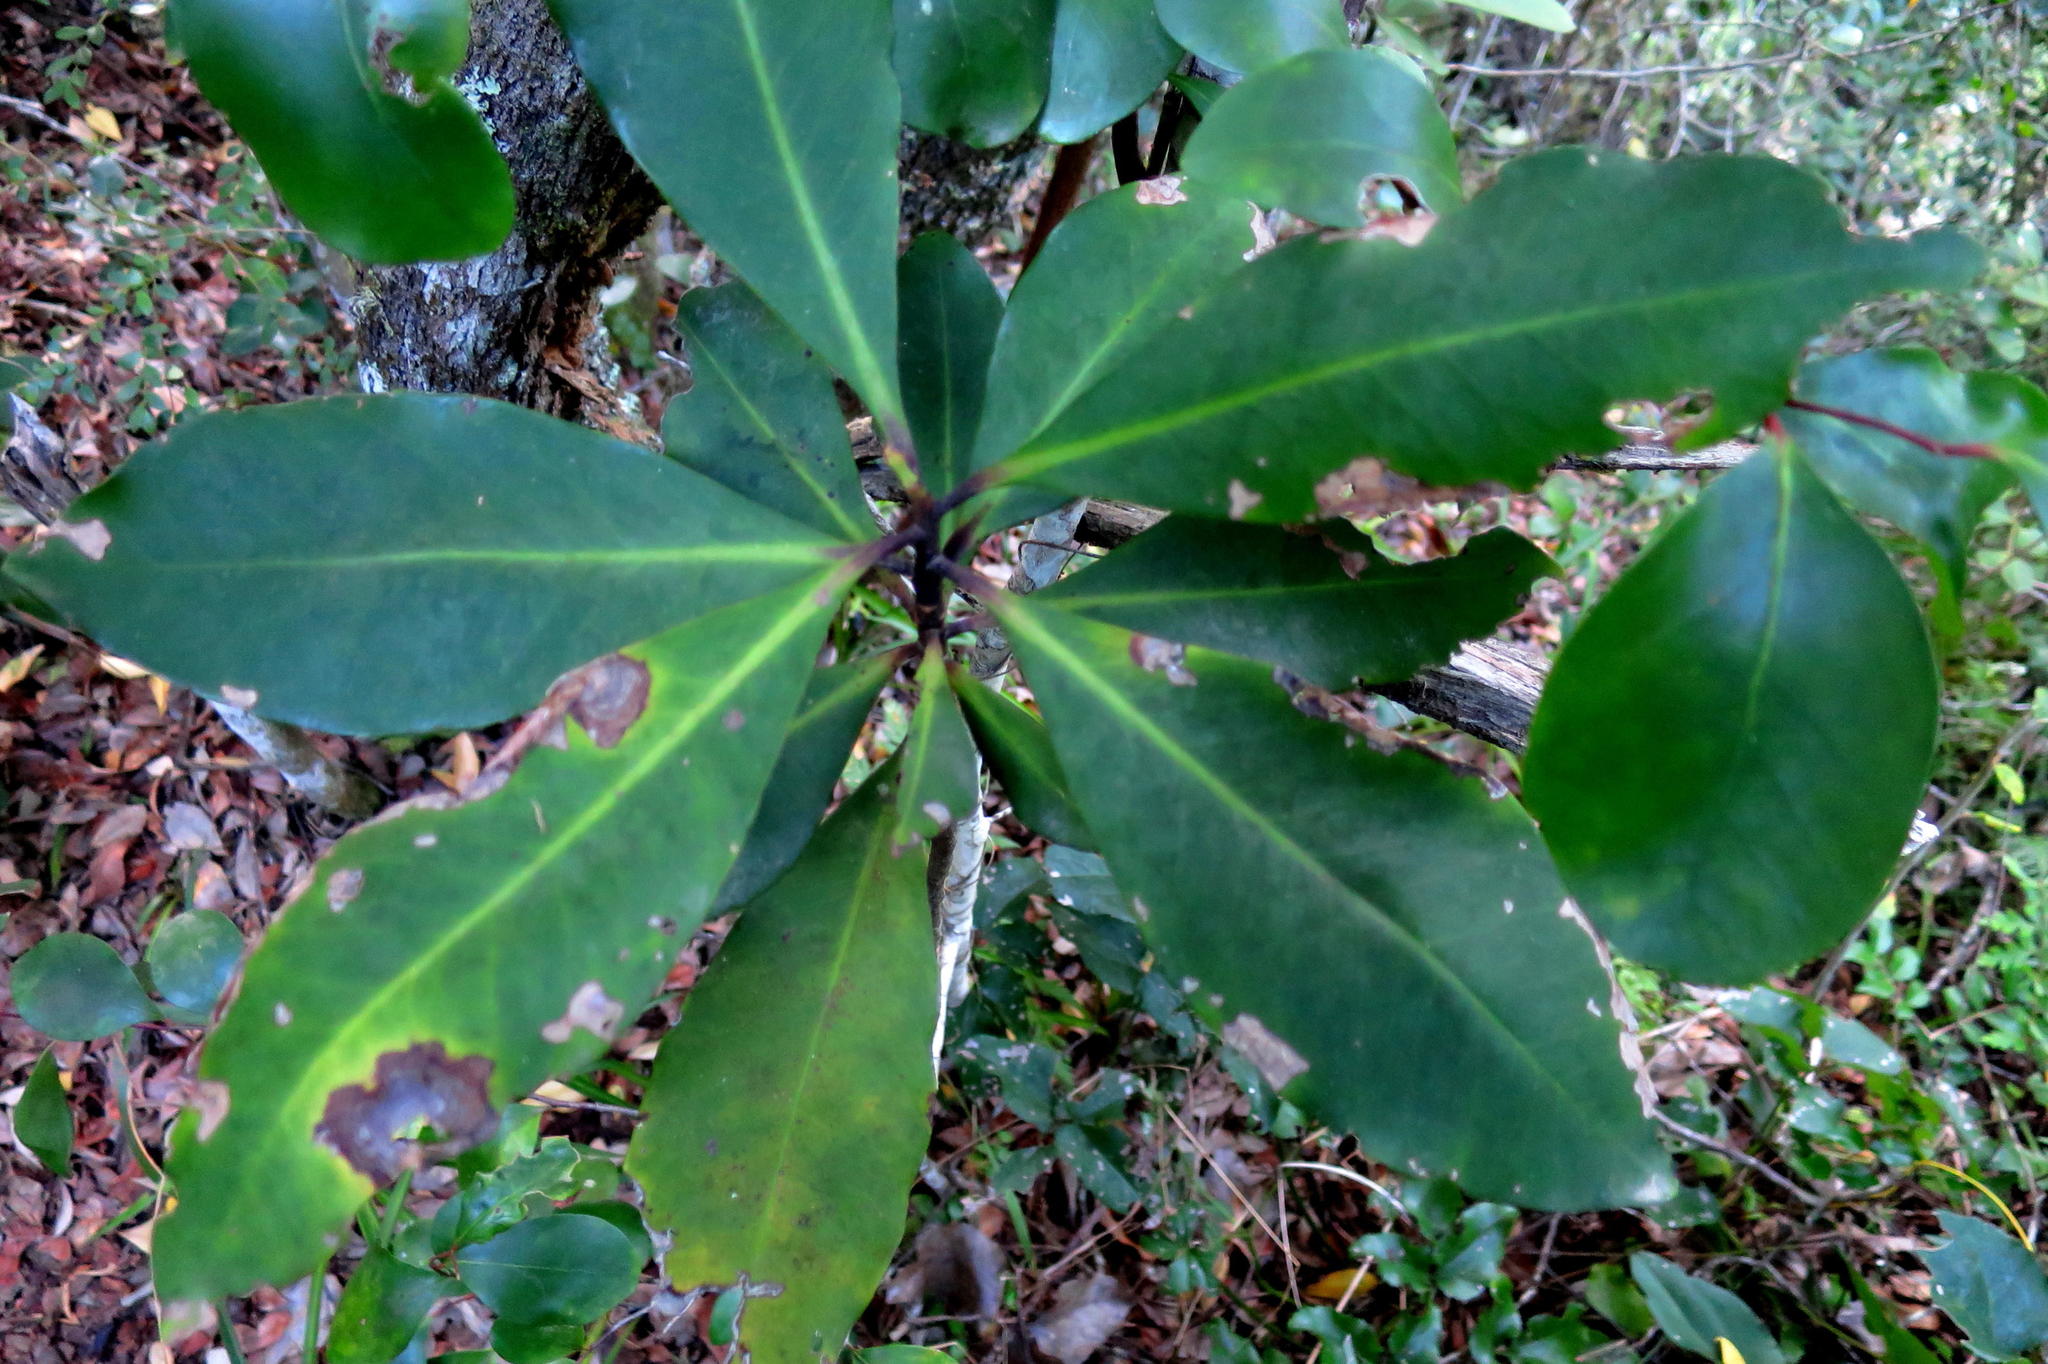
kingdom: Plantae
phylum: Tracheophyta
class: Magnoliopsida
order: Ericales
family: Primulaceae
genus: Myrsine
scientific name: Myrsine melanophloeos
